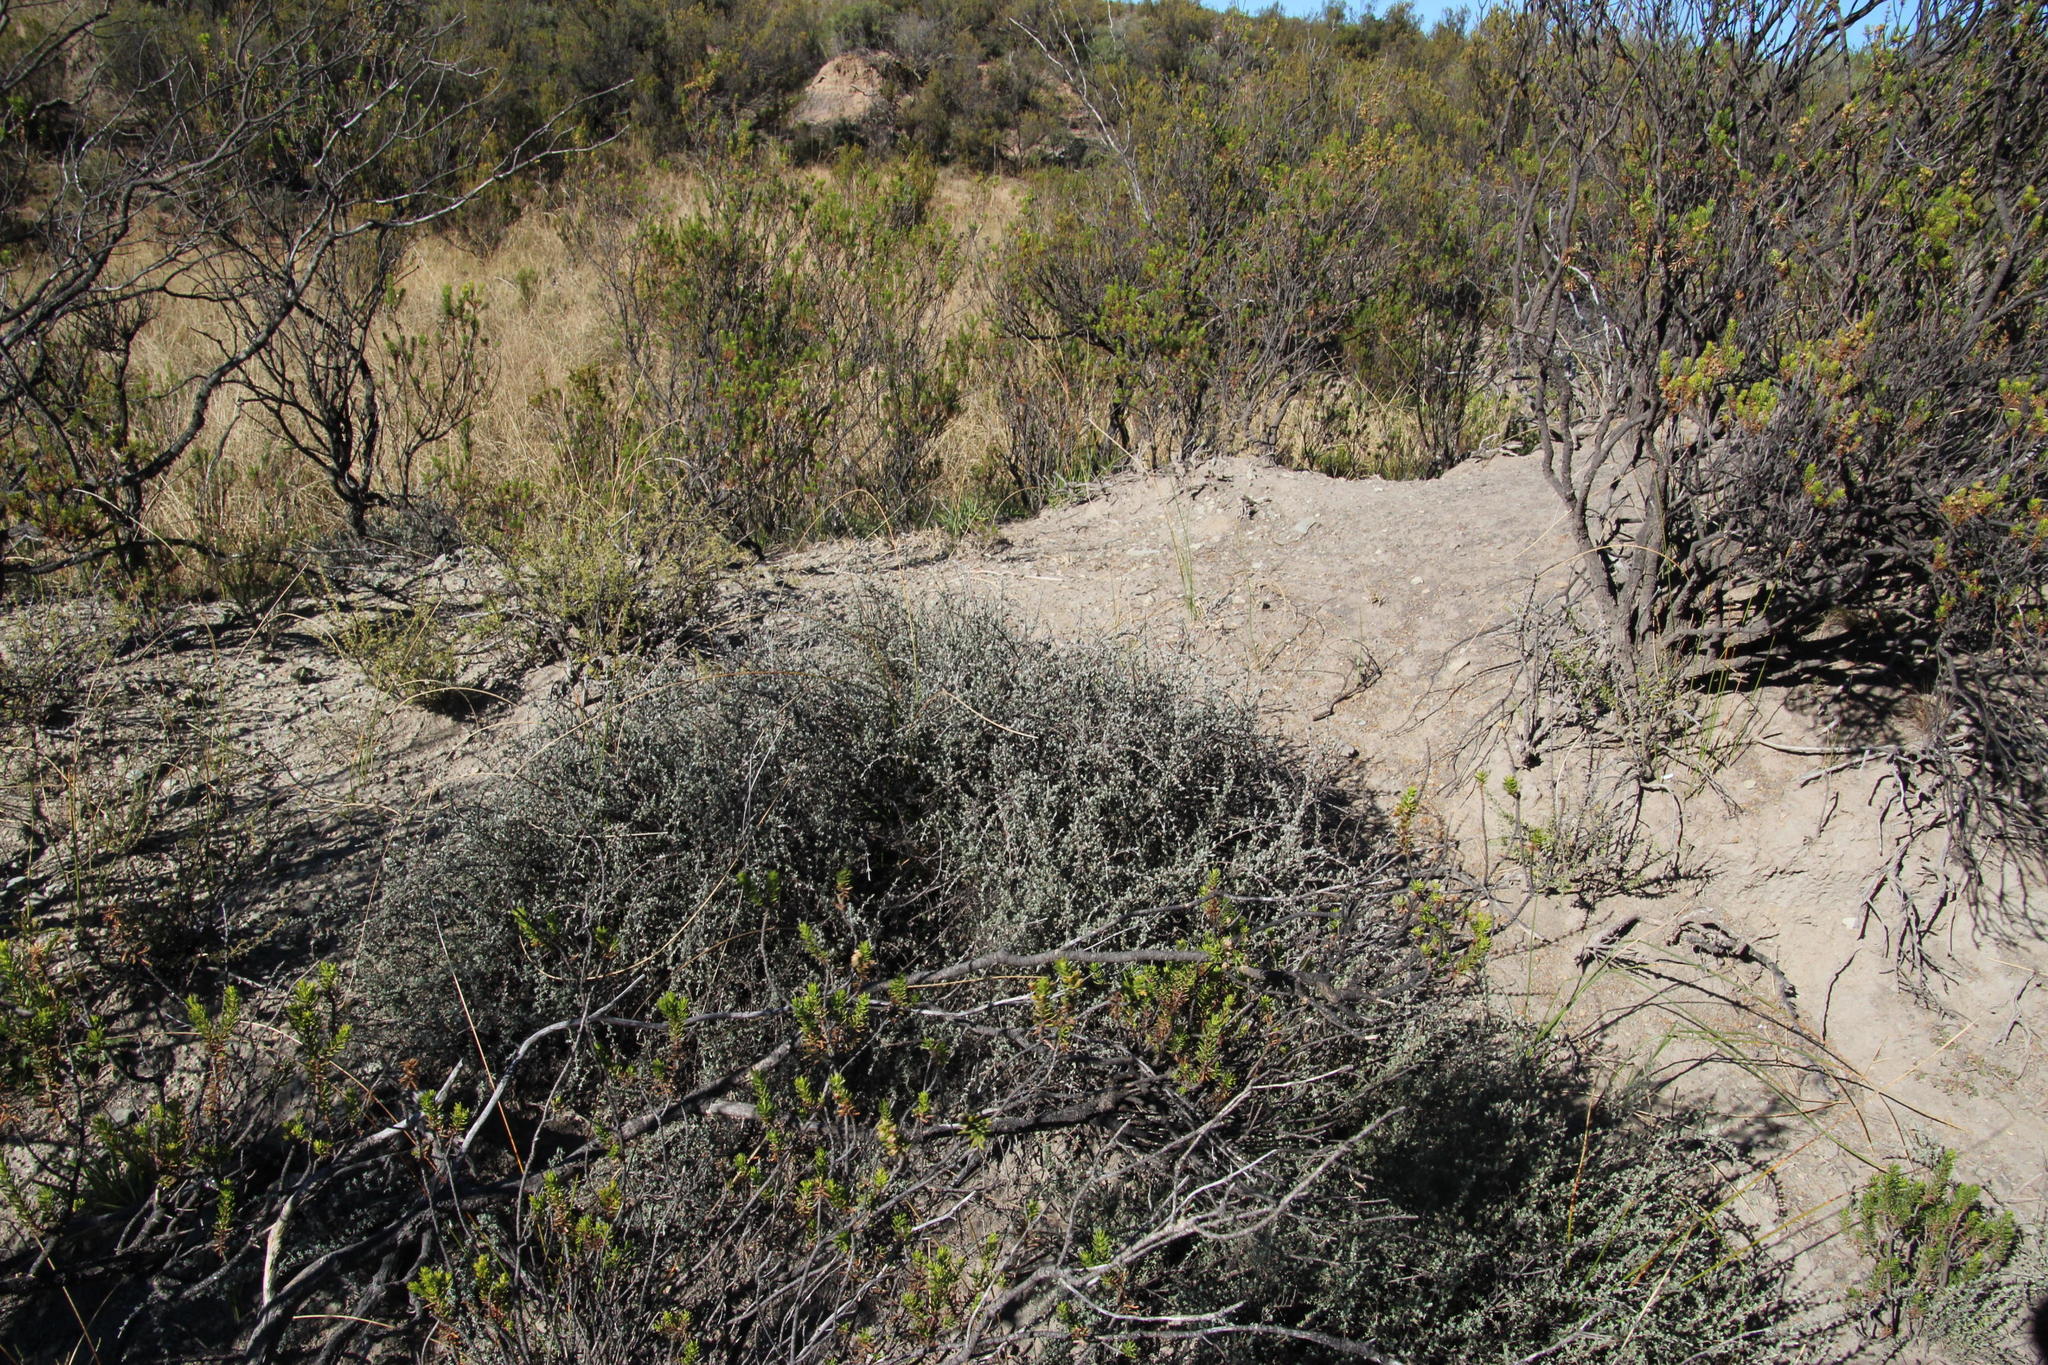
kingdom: Plantae
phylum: Tracheophyta
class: Magnoliopsida
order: Asterales
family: Asteraceae
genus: Pteronia
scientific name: Pteronia glauca
